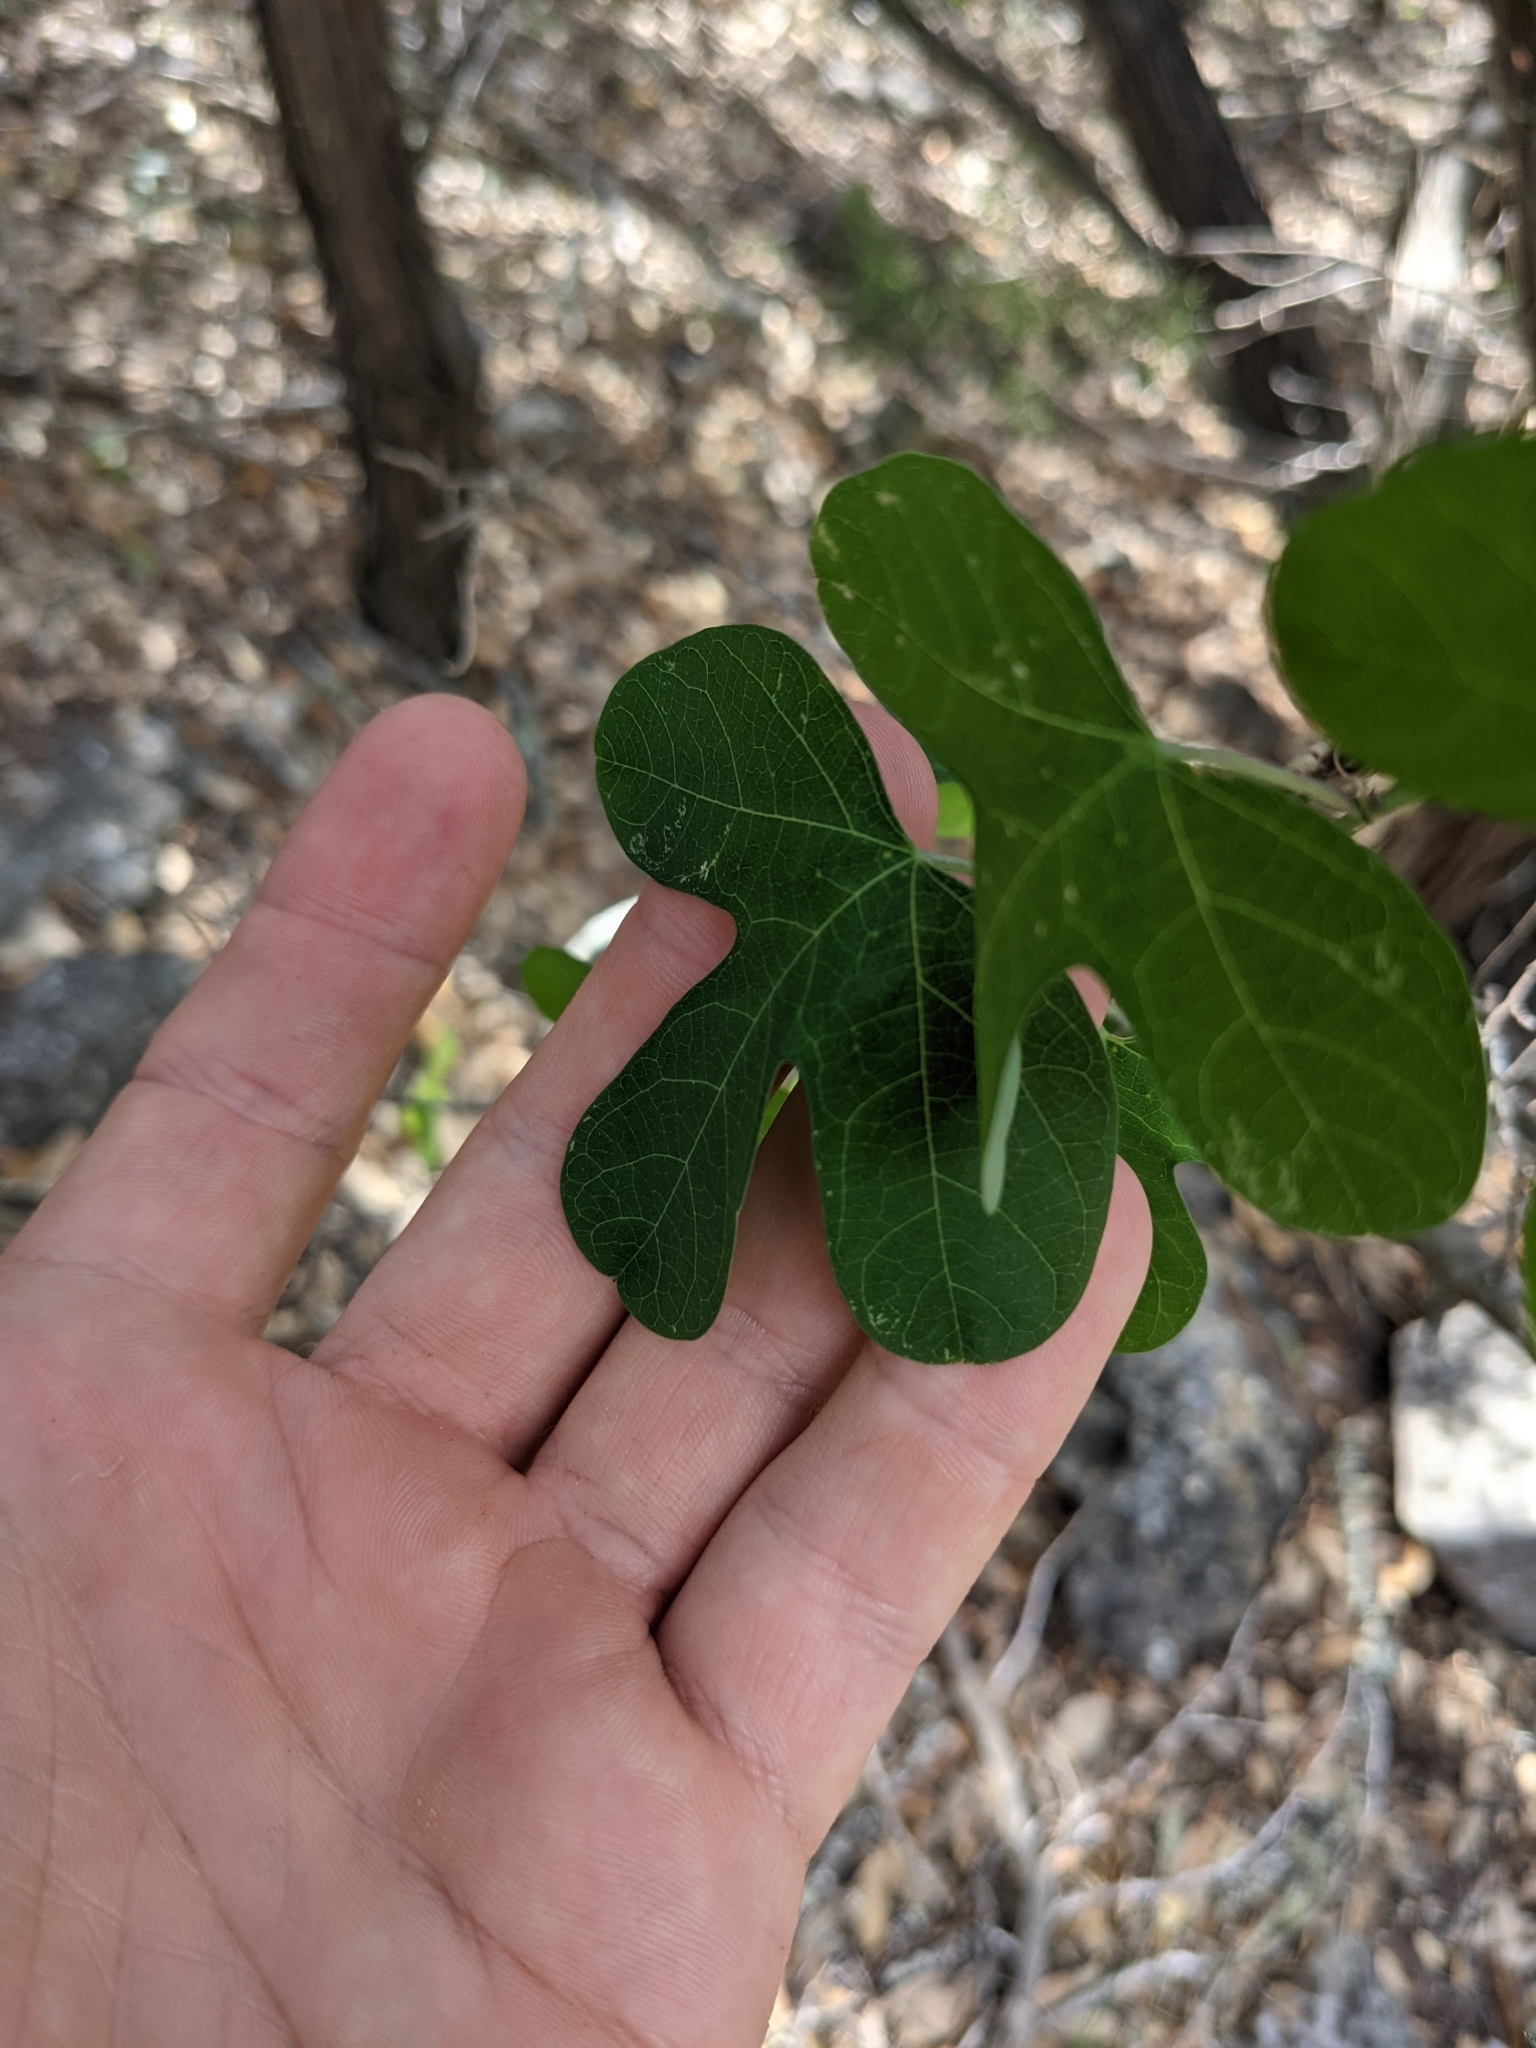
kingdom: Plantae
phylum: Tracheophyta
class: Magnoliopsida
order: Malpighiales
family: Passifloraceae
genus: Passiflora
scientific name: Passiflora affinis
